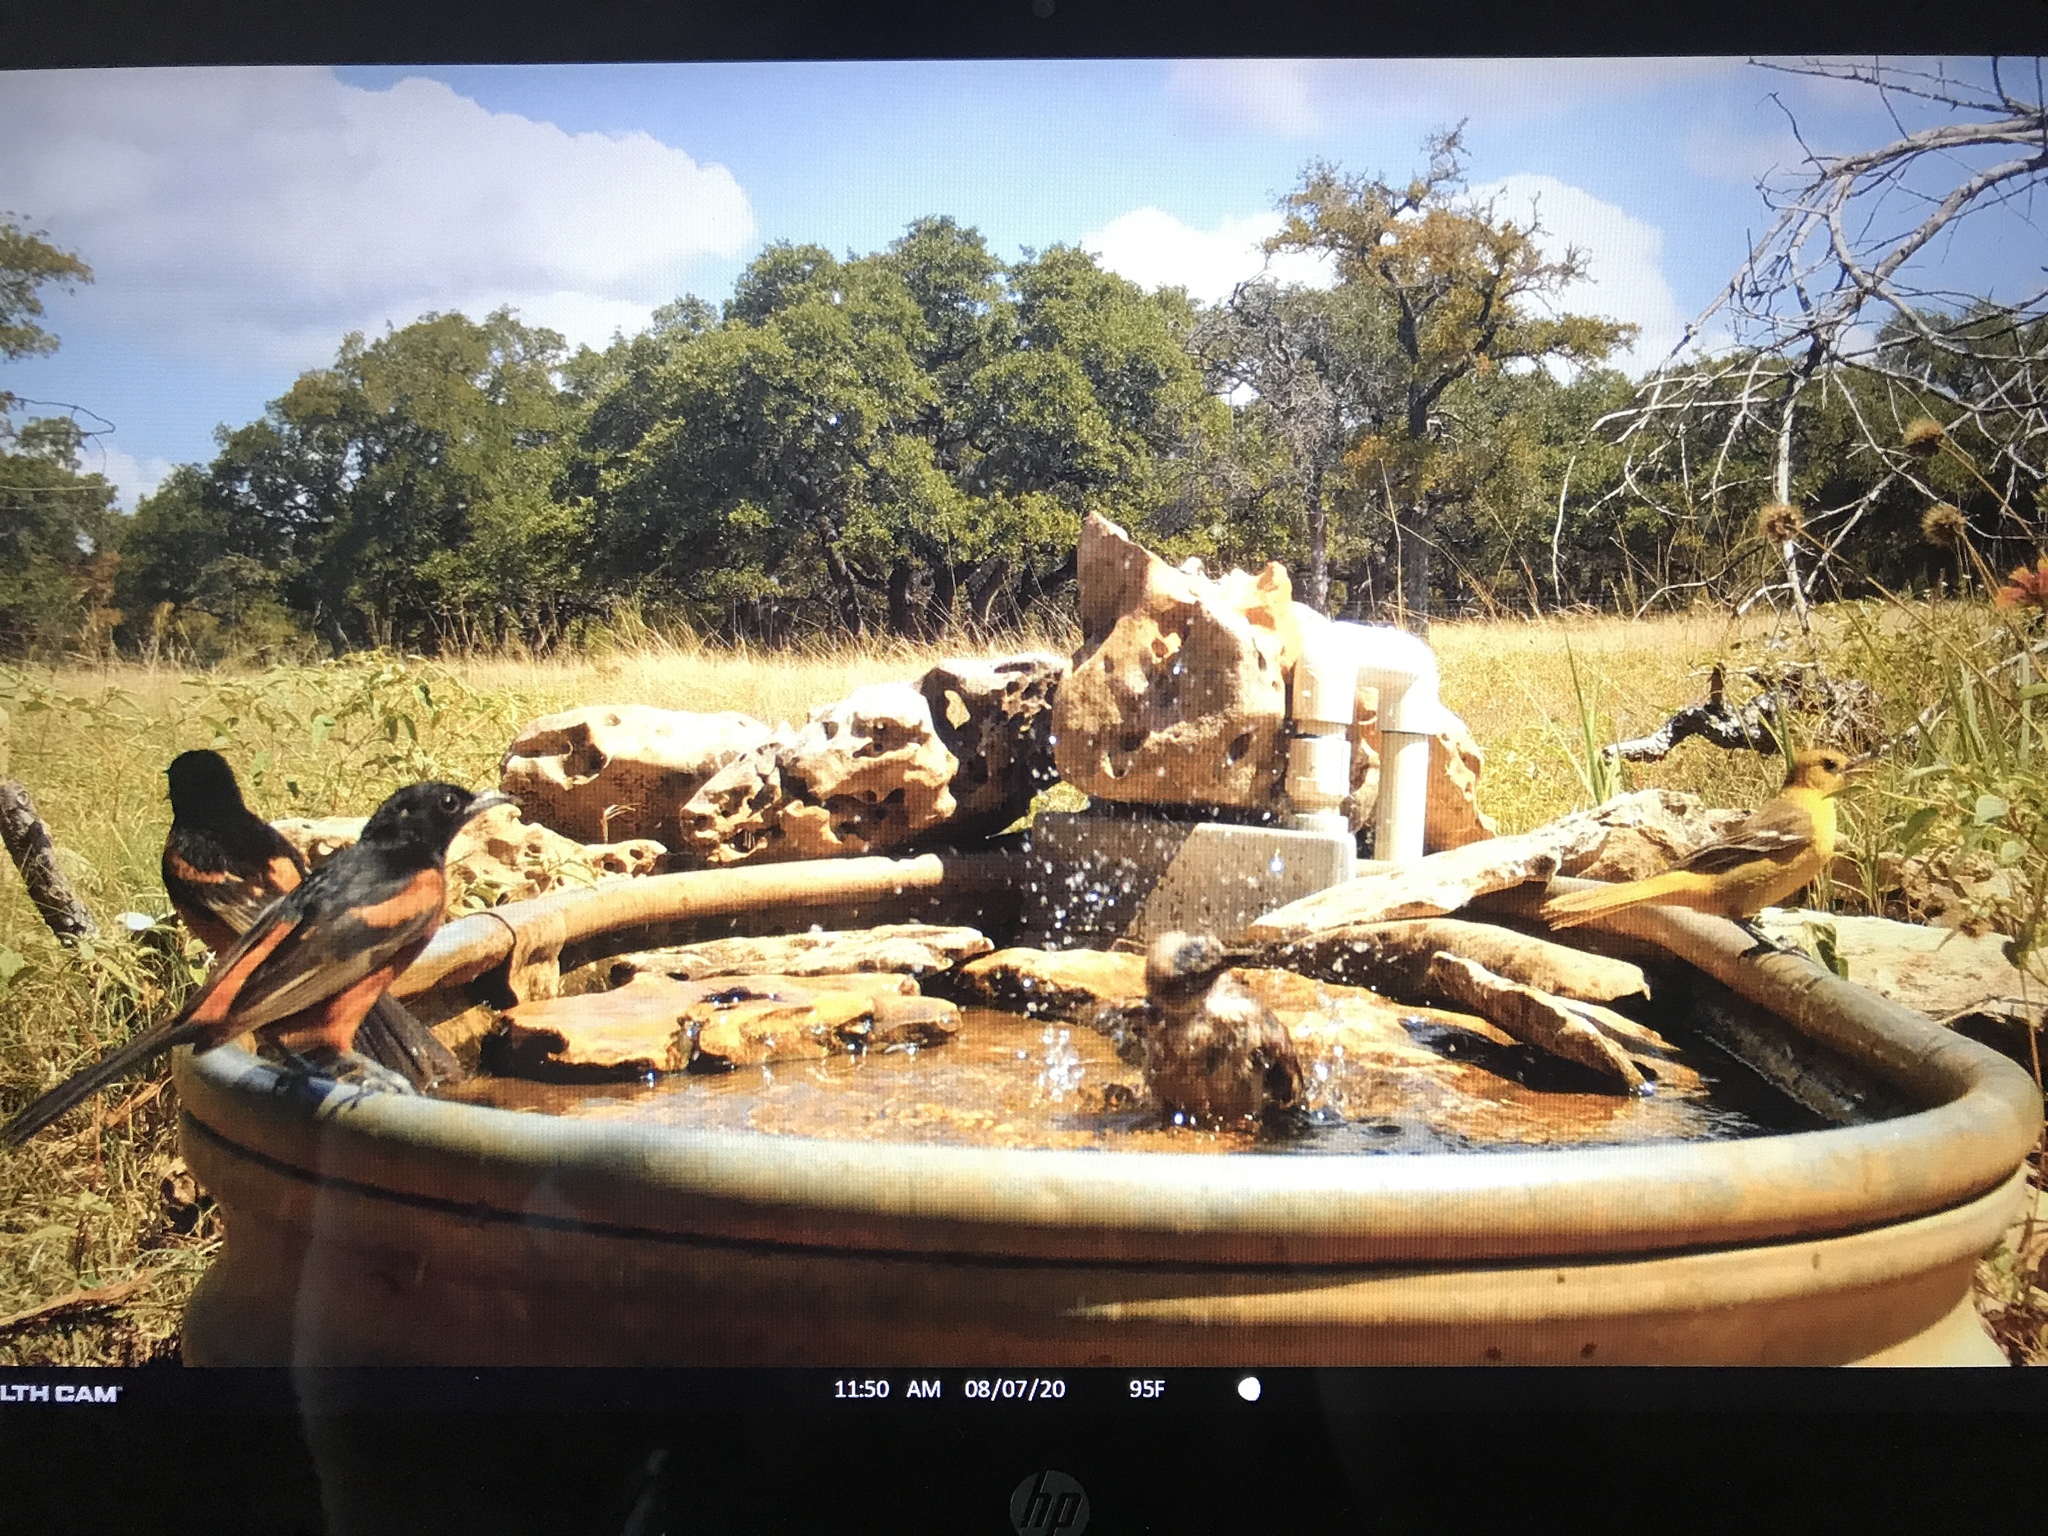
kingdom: Animalia
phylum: Chordata
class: Aves
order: Passeriformes
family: Icteridae
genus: Icterus
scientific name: Icterus spurius
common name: Orchard oriole
